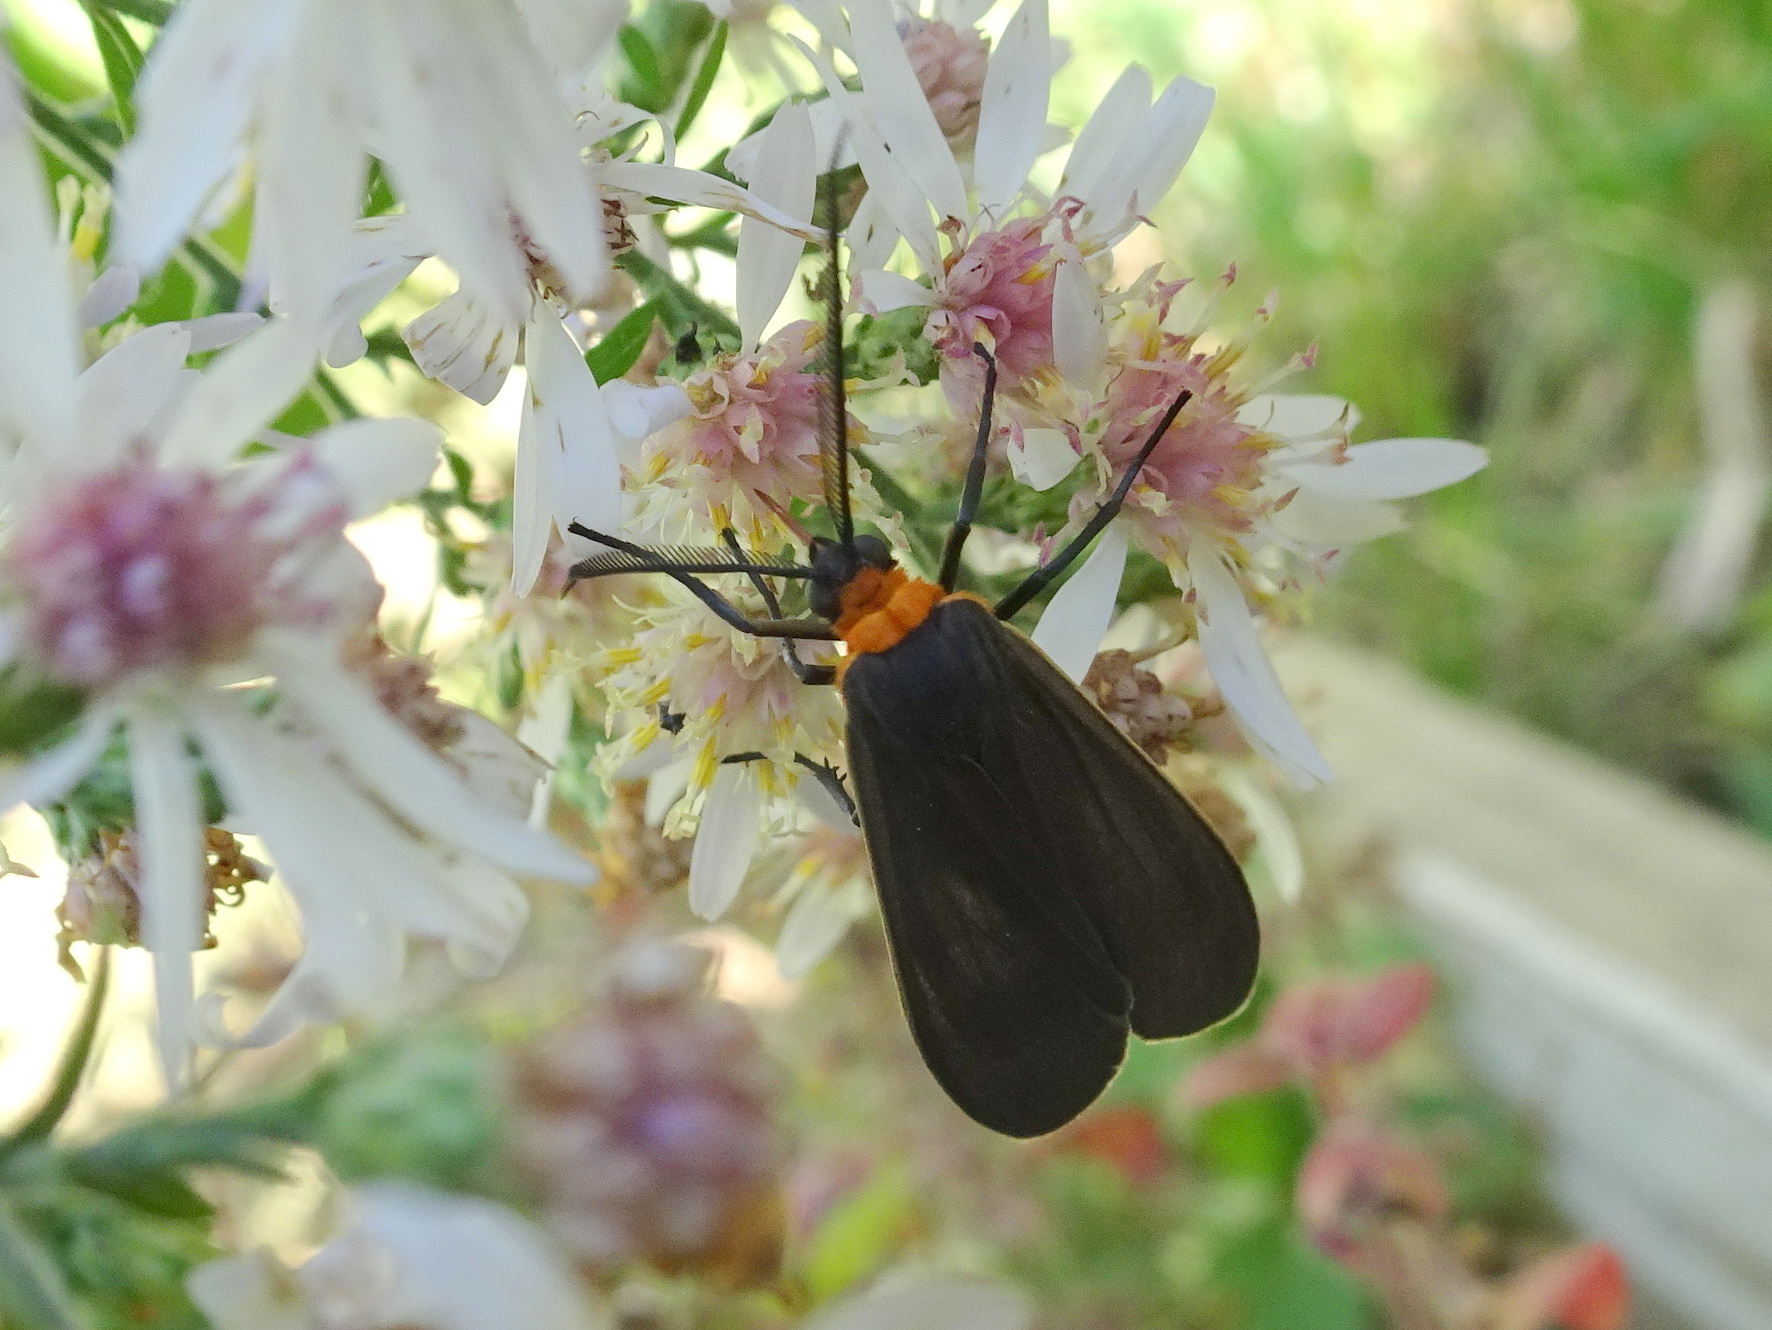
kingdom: Animalia
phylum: Arthropoda
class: Insecta
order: Lepidoptera
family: Erebidae
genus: Cisseps
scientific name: Cisseps fulvicollis
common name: Yellow-collared scape moth
